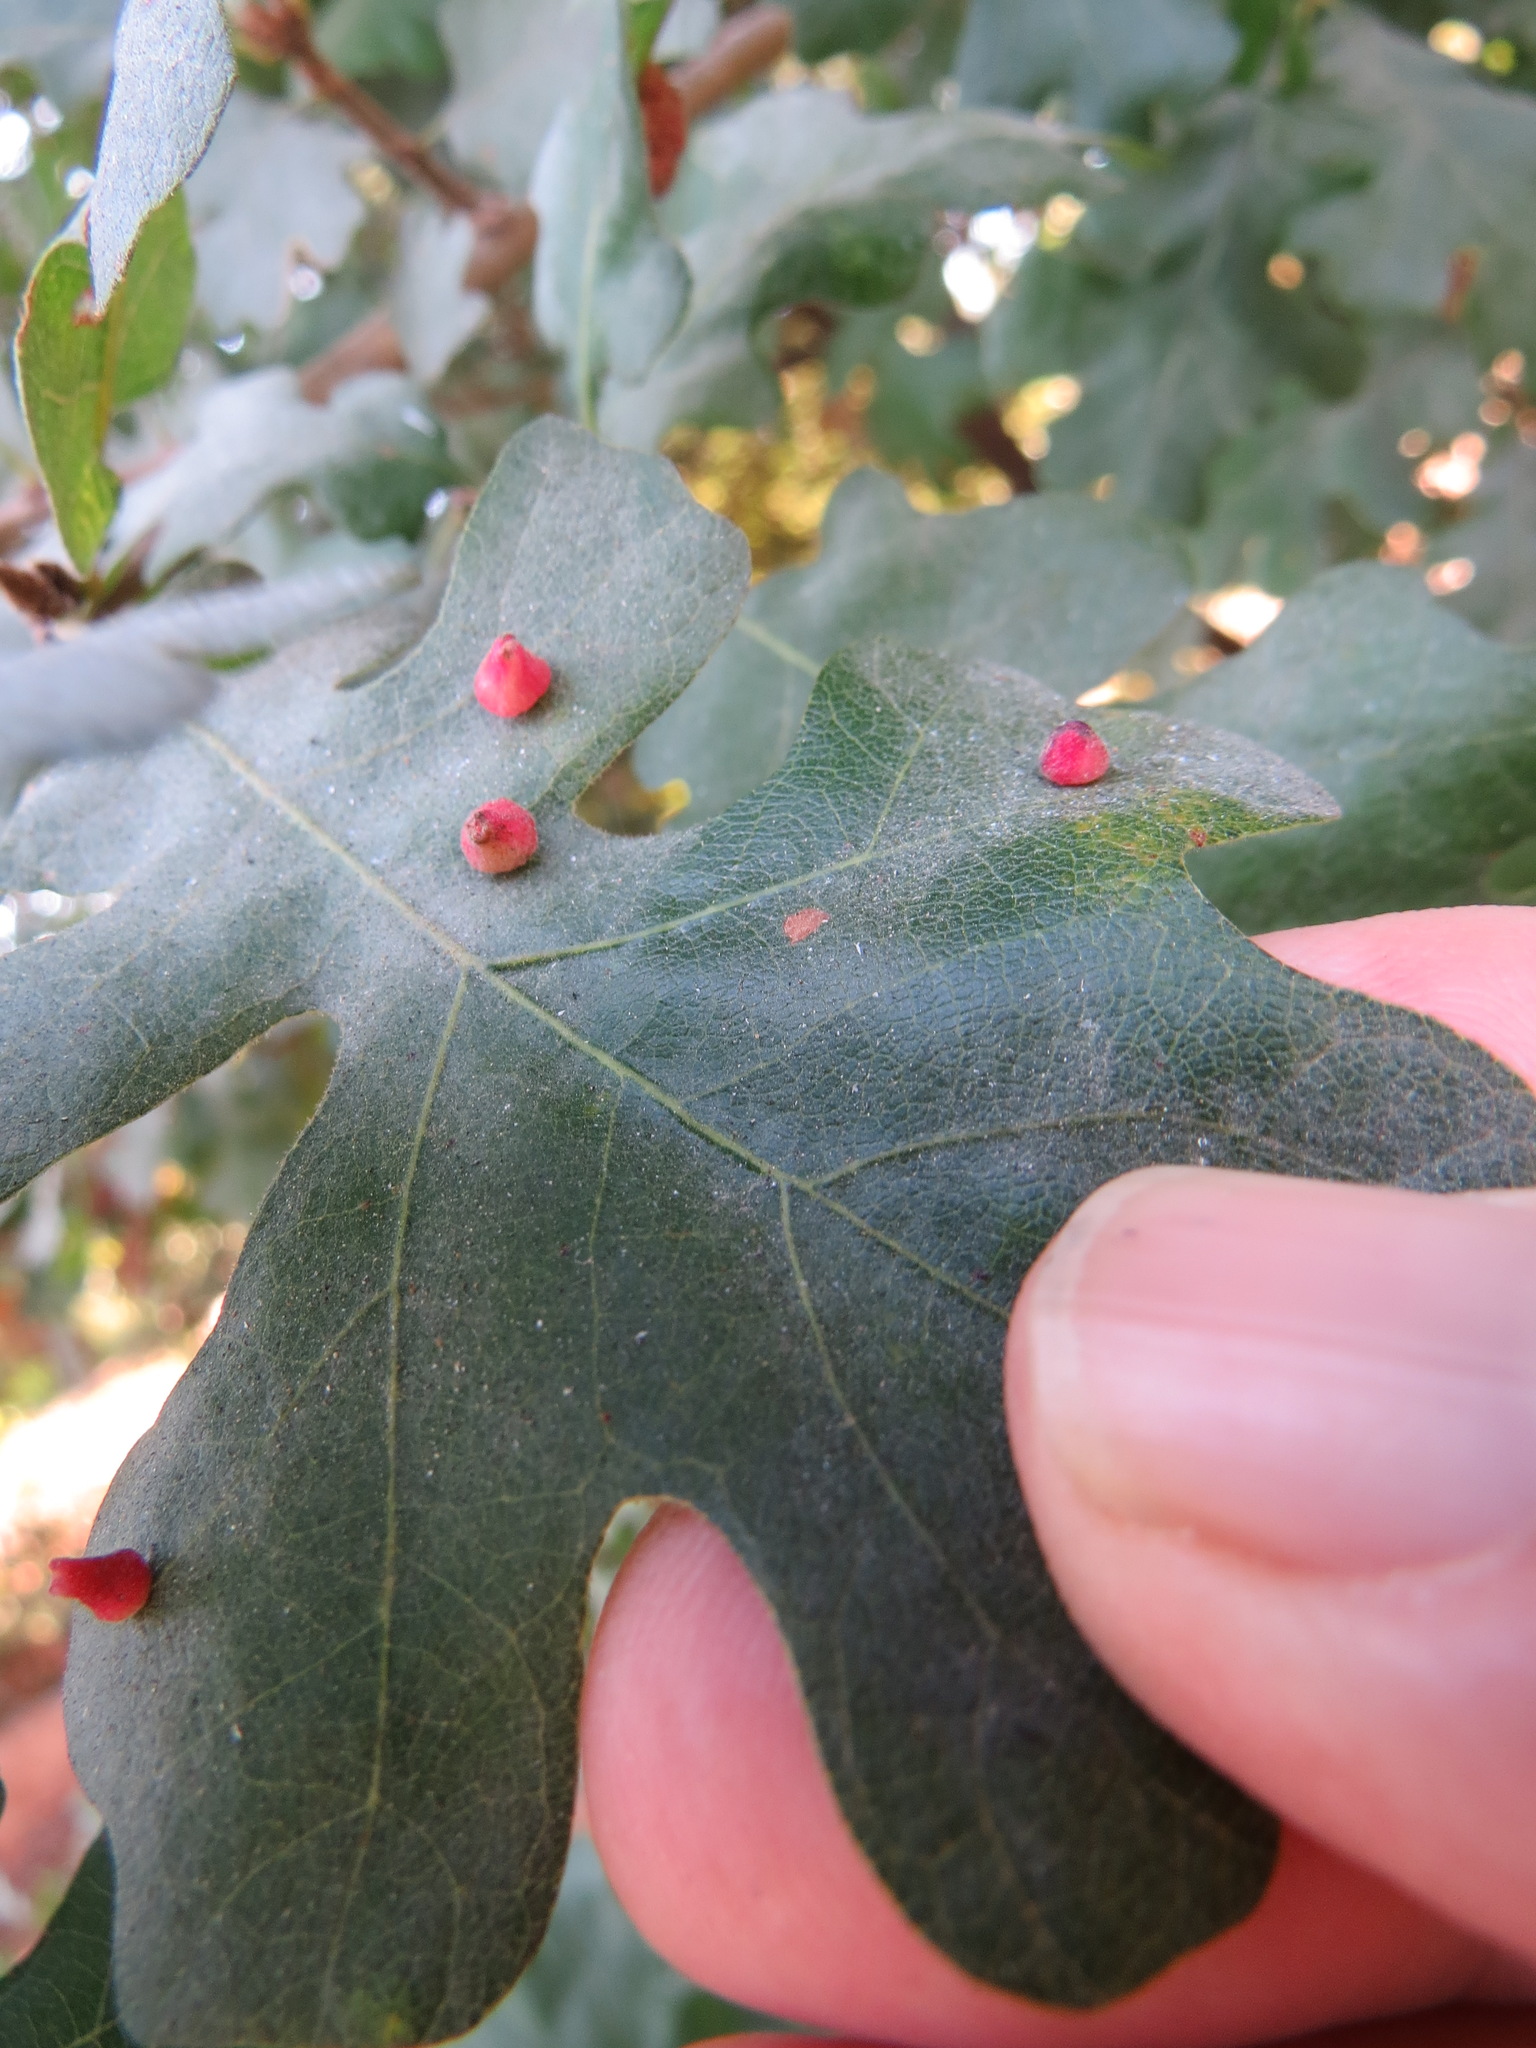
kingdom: Animalia
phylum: Arthropoda
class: Insecta
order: Hymenoptera
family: Cynipidae
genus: Andricus
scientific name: Andricus
